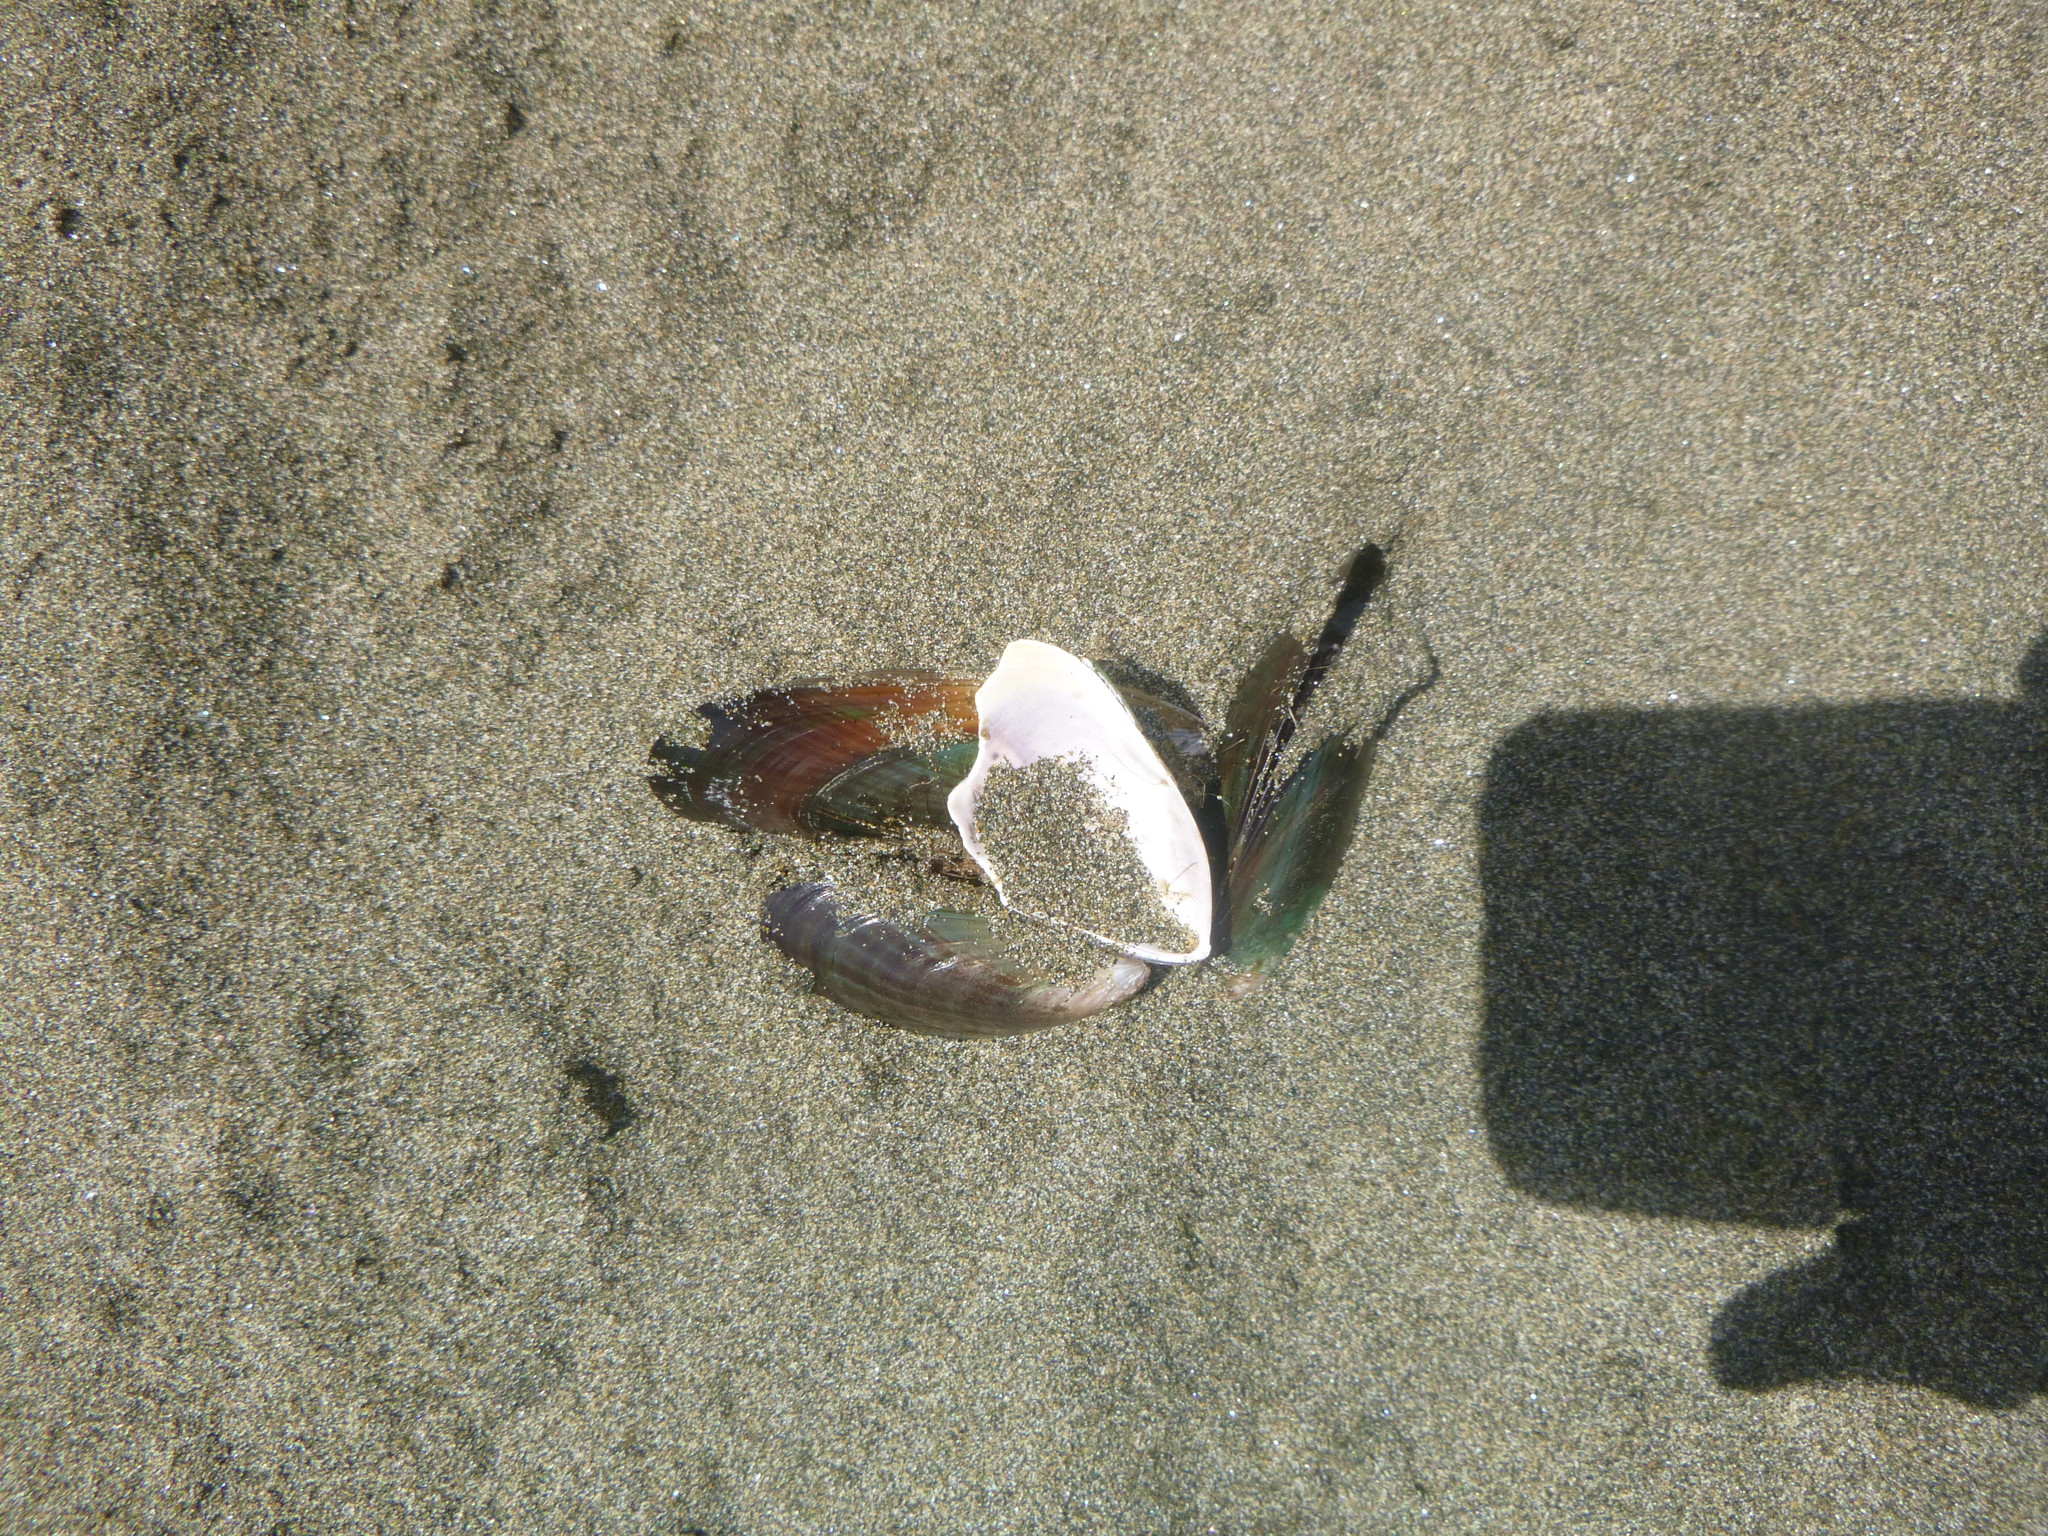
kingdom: Animalia
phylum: Mollusca
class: Bivalvia
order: Mytilida
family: Mytilidae
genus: Perna
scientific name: Perna canaliculus
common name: New zealand greenshelltm
